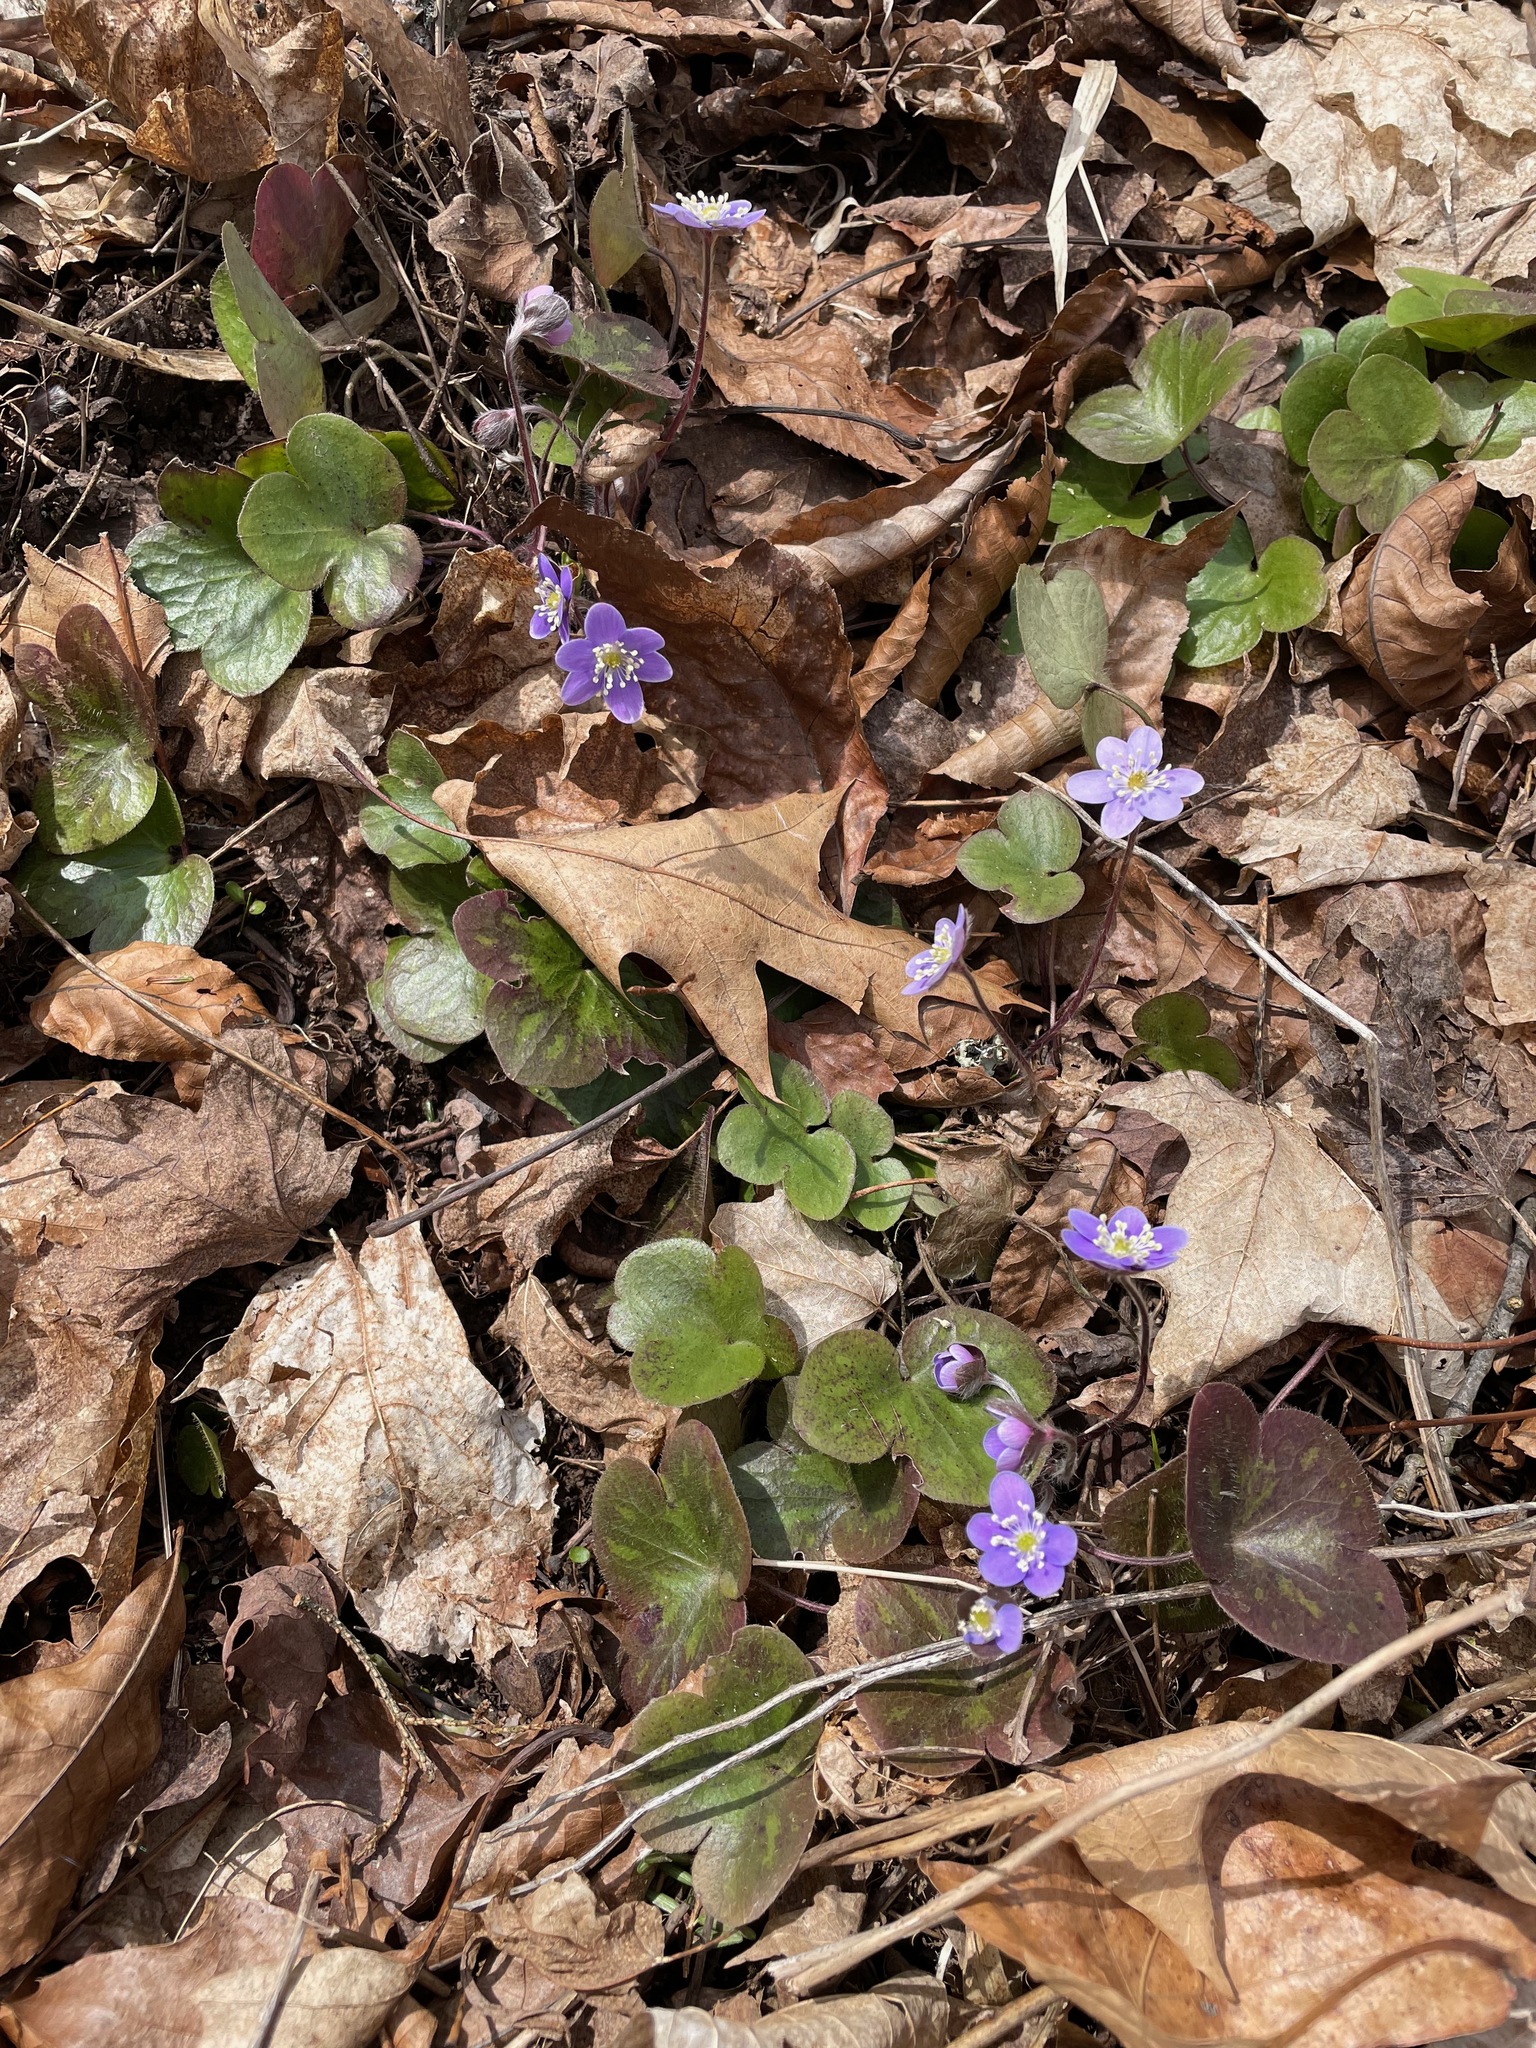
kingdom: Plantae
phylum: Tracheophyta
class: Magnoliopsida
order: Ranunculales
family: Ranunculaceae
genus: Hepatica
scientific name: Hepatica americana
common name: American hepatica
